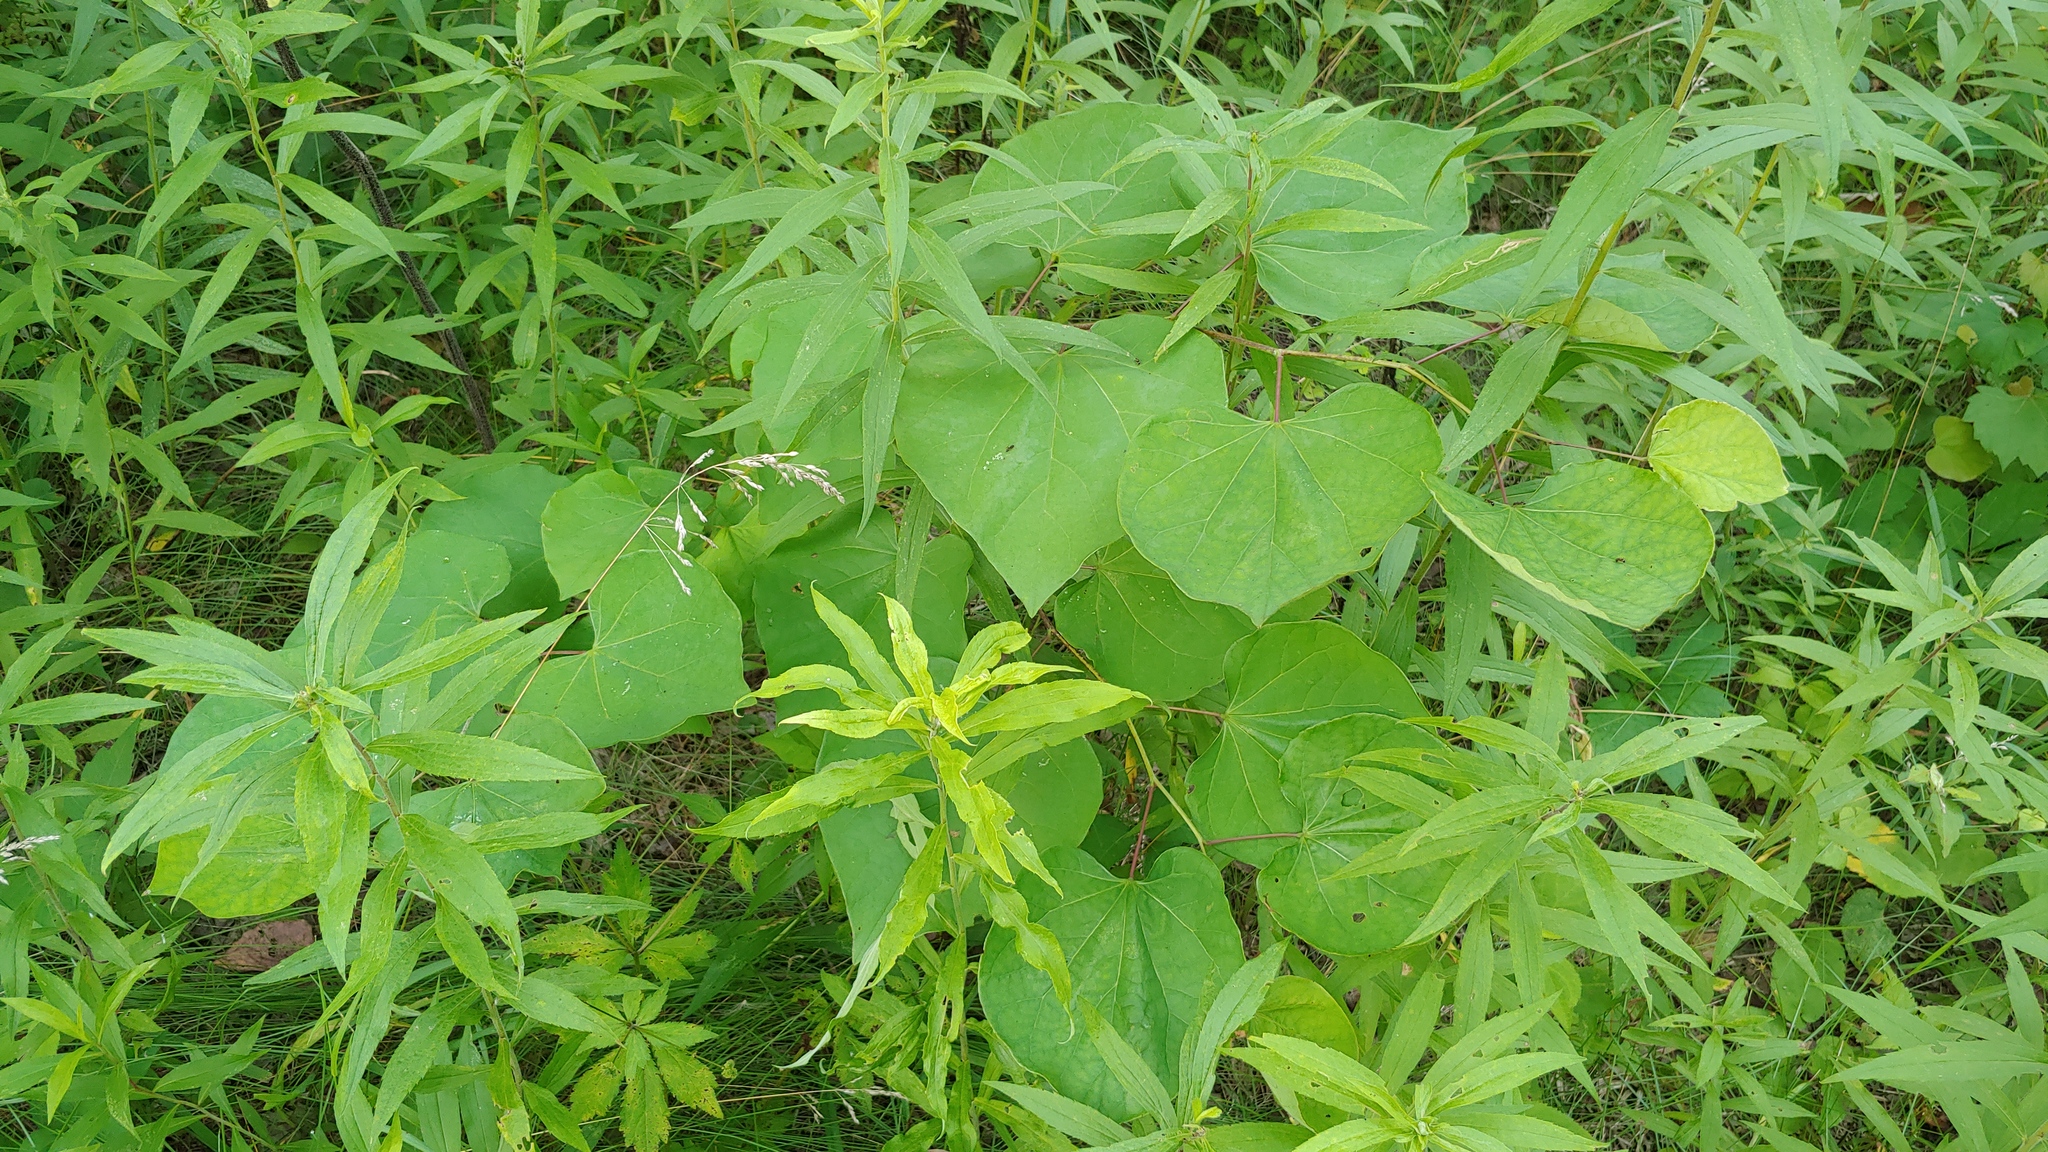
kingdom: Plantae
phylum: Tracheophyta
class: Magnoliopsida
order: Fabales
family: Fabaceae
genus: Cercis
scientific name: Cercis canadensis
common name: Eastern redbud
